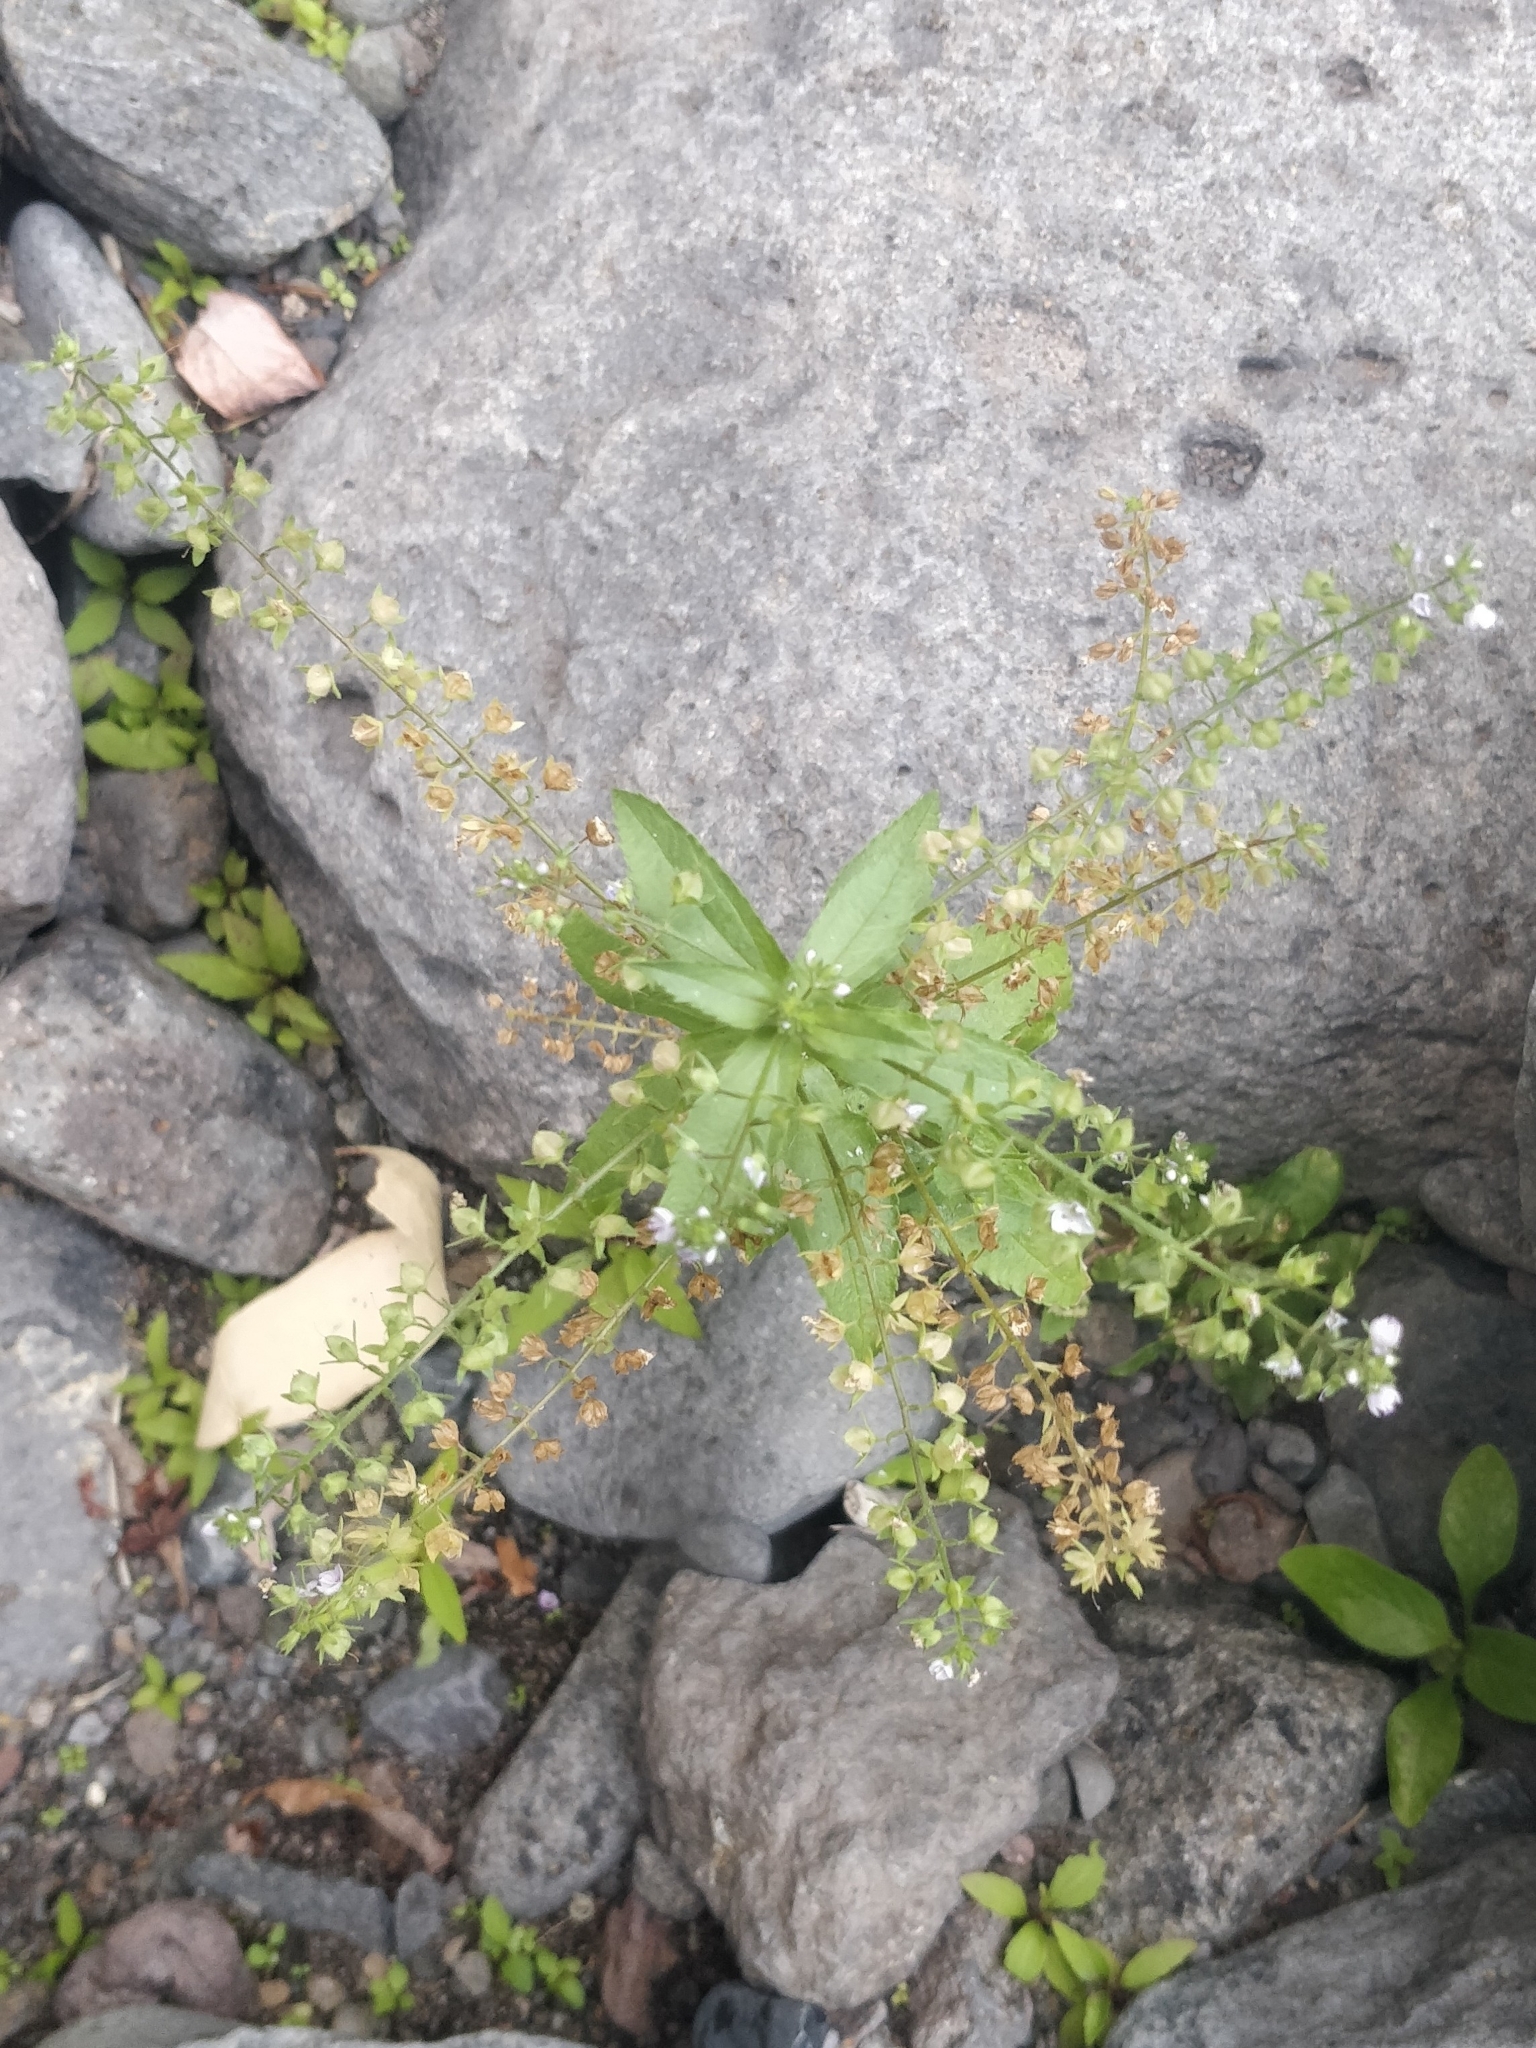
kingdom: Plantae
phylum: Tracheophyta
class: Magnoliopsida
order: Lamiales
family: Plantaginaceae
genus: Veronica
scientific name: Veronica anagallis-aquatica
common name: Water speedwell
